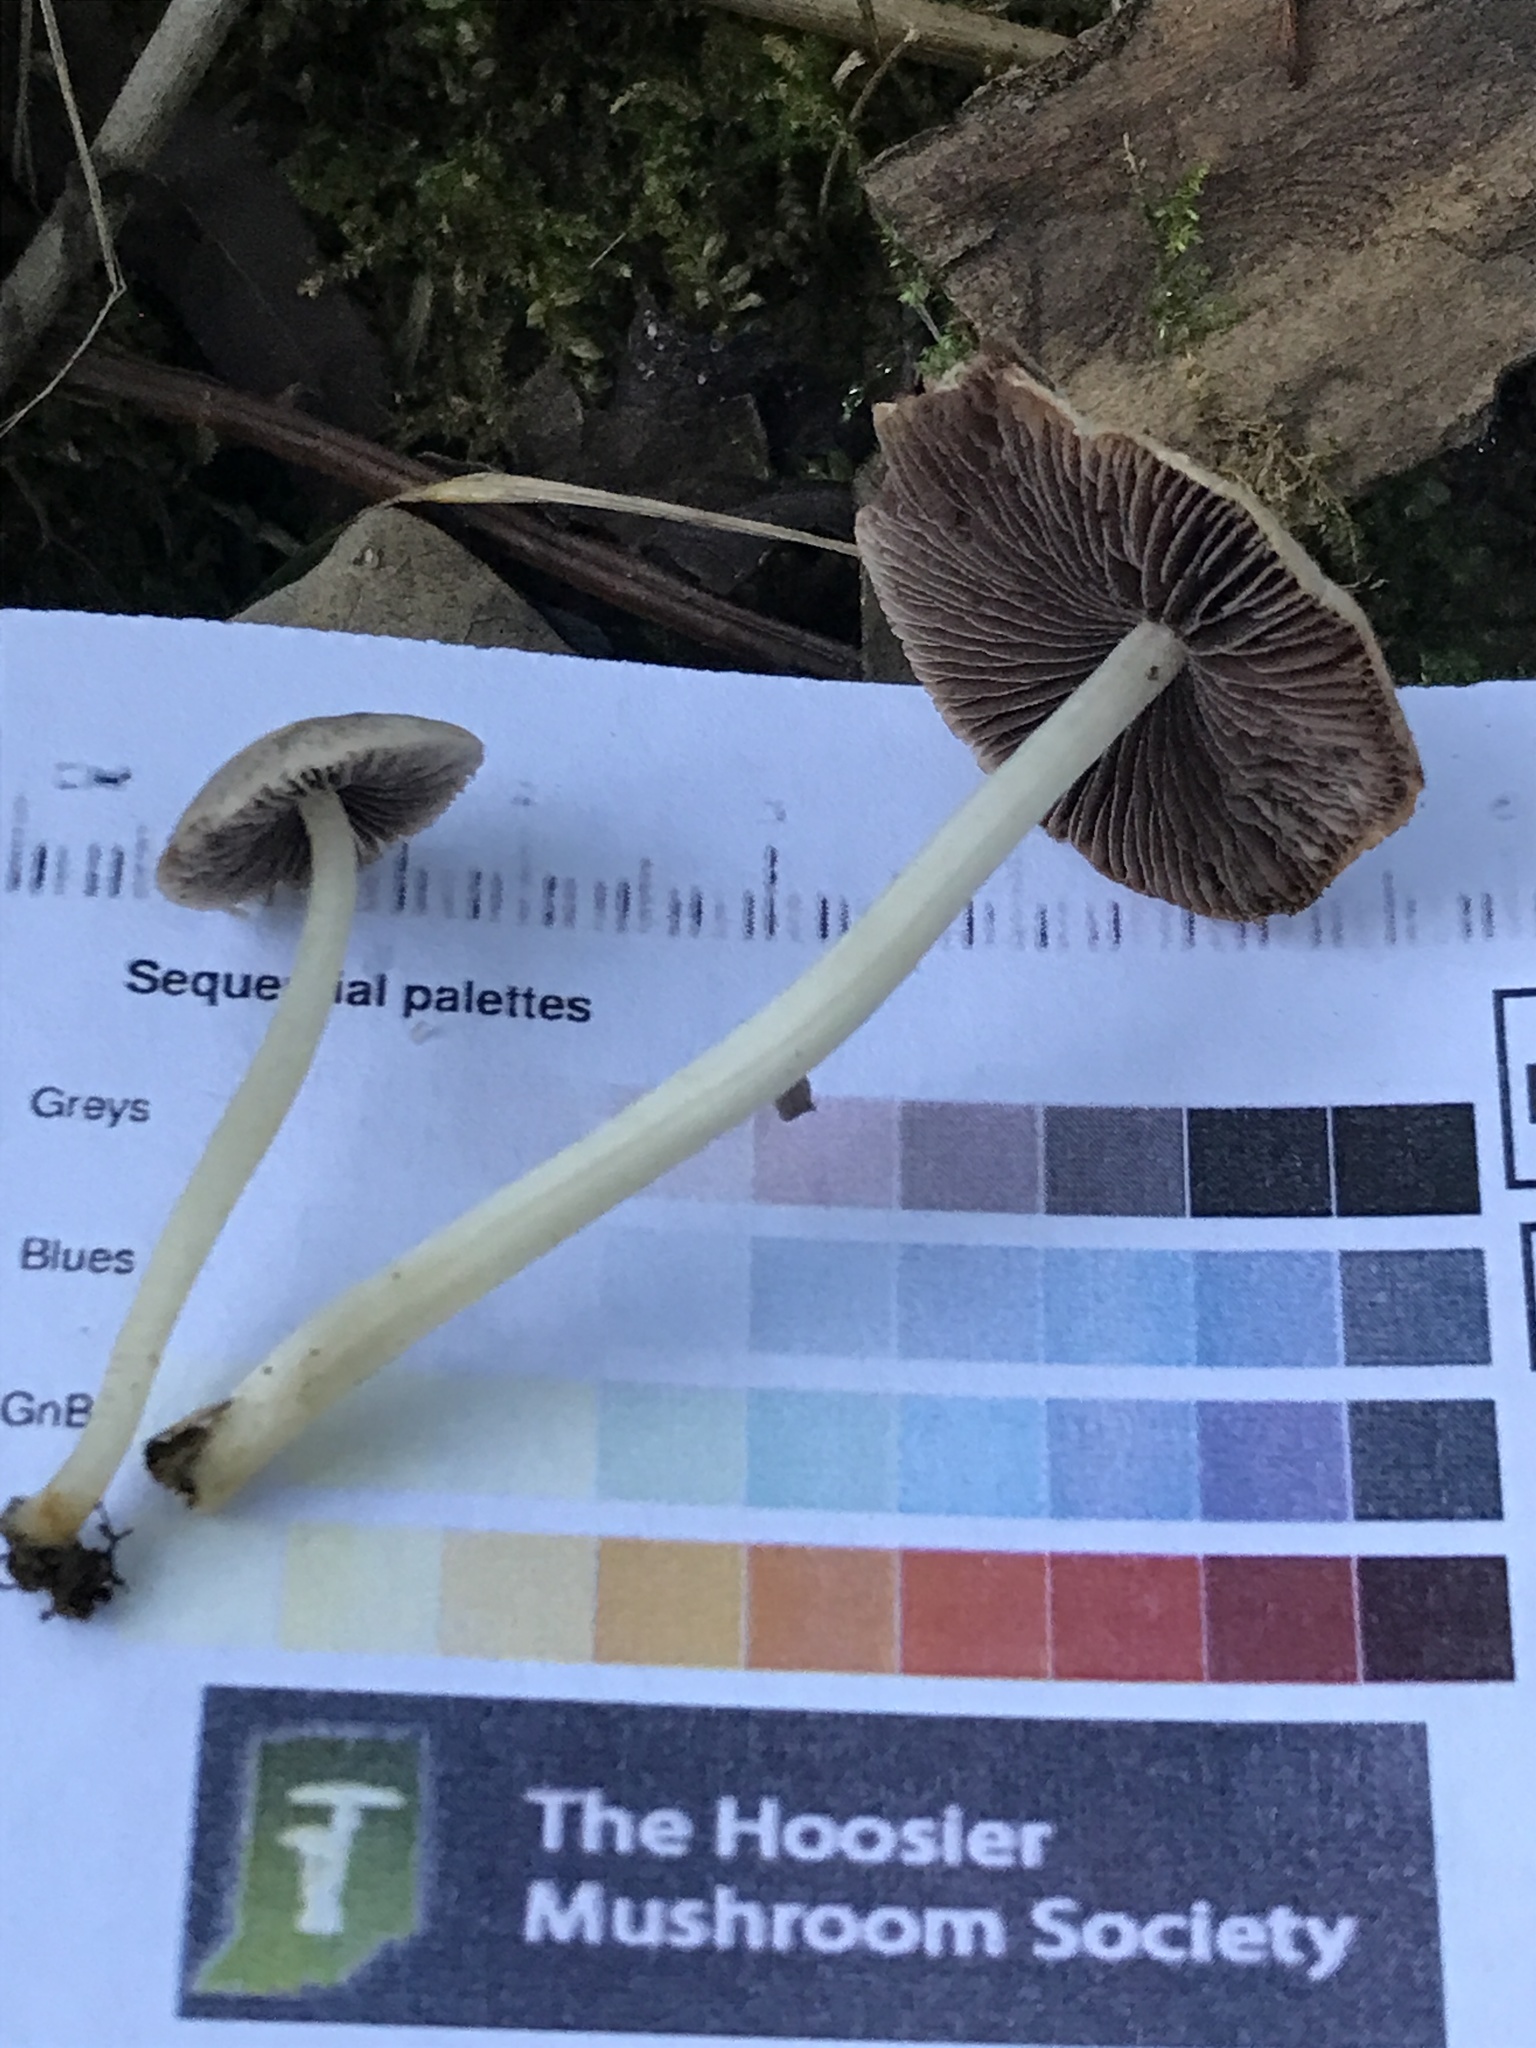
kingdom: Fungi
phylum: Basidiomycota
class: Agaricomycetes
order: Agaricales
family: Psathyrellaceae
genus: Candolleomyces
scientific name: Candolleomyces candolleanus
